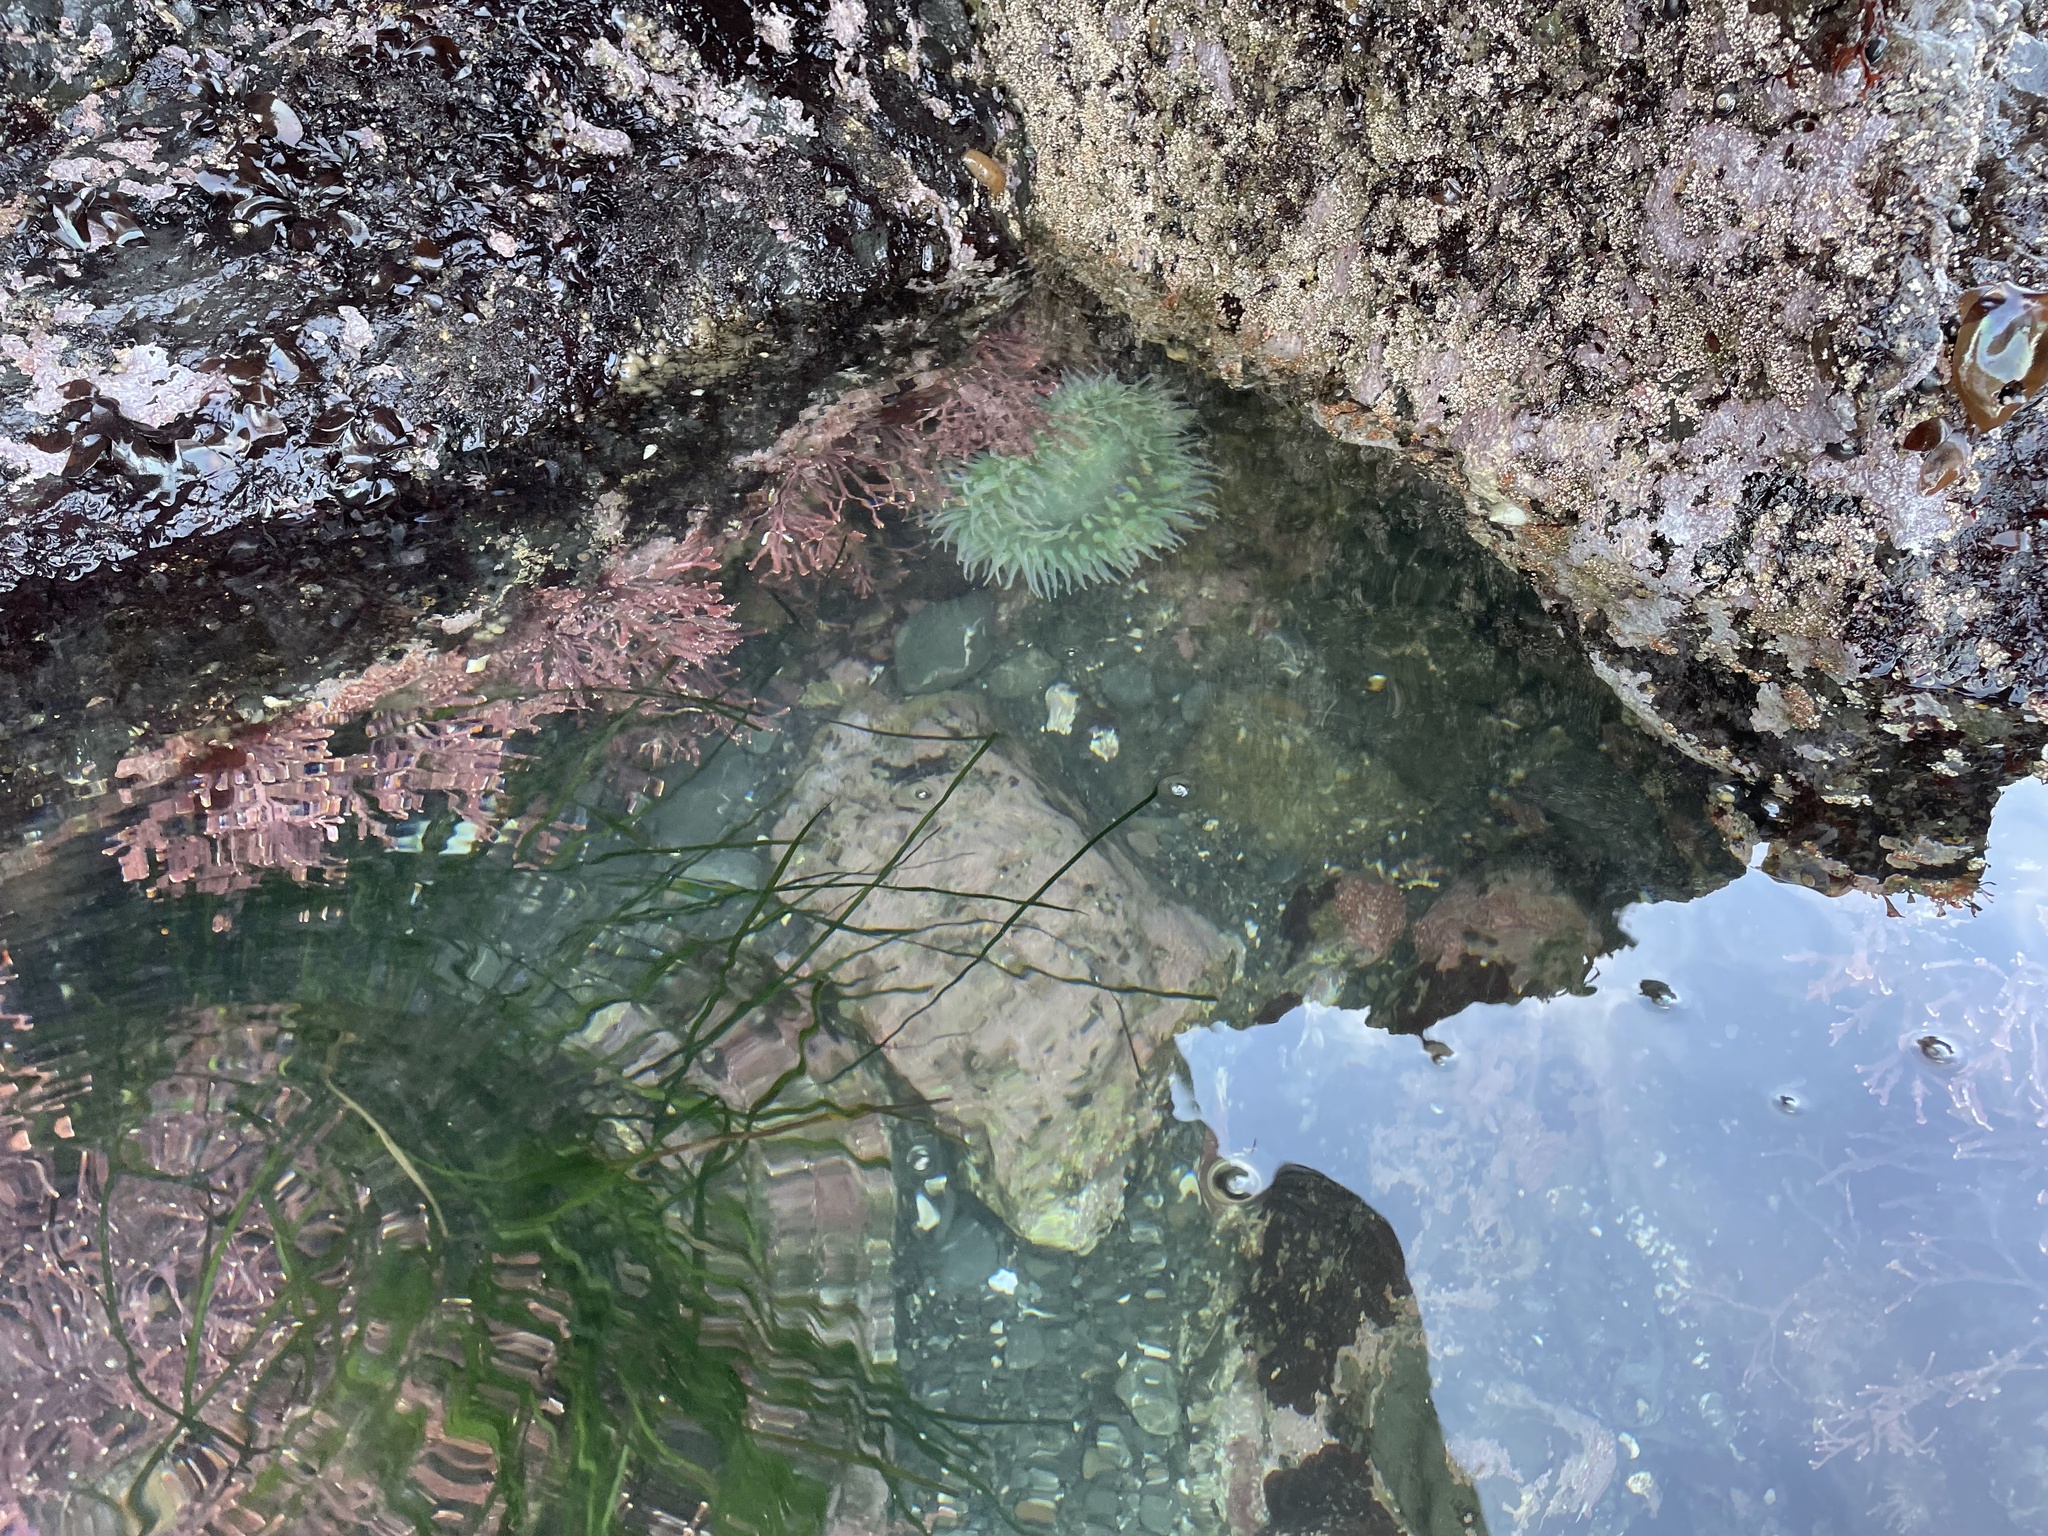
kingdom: Animalia
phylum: Cnidaria
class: Anthozoa
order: Actiniaria
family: Actiniidae
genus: Anthopleura
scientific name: Anthopleura xanthogrammica
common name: Giant green anemone
